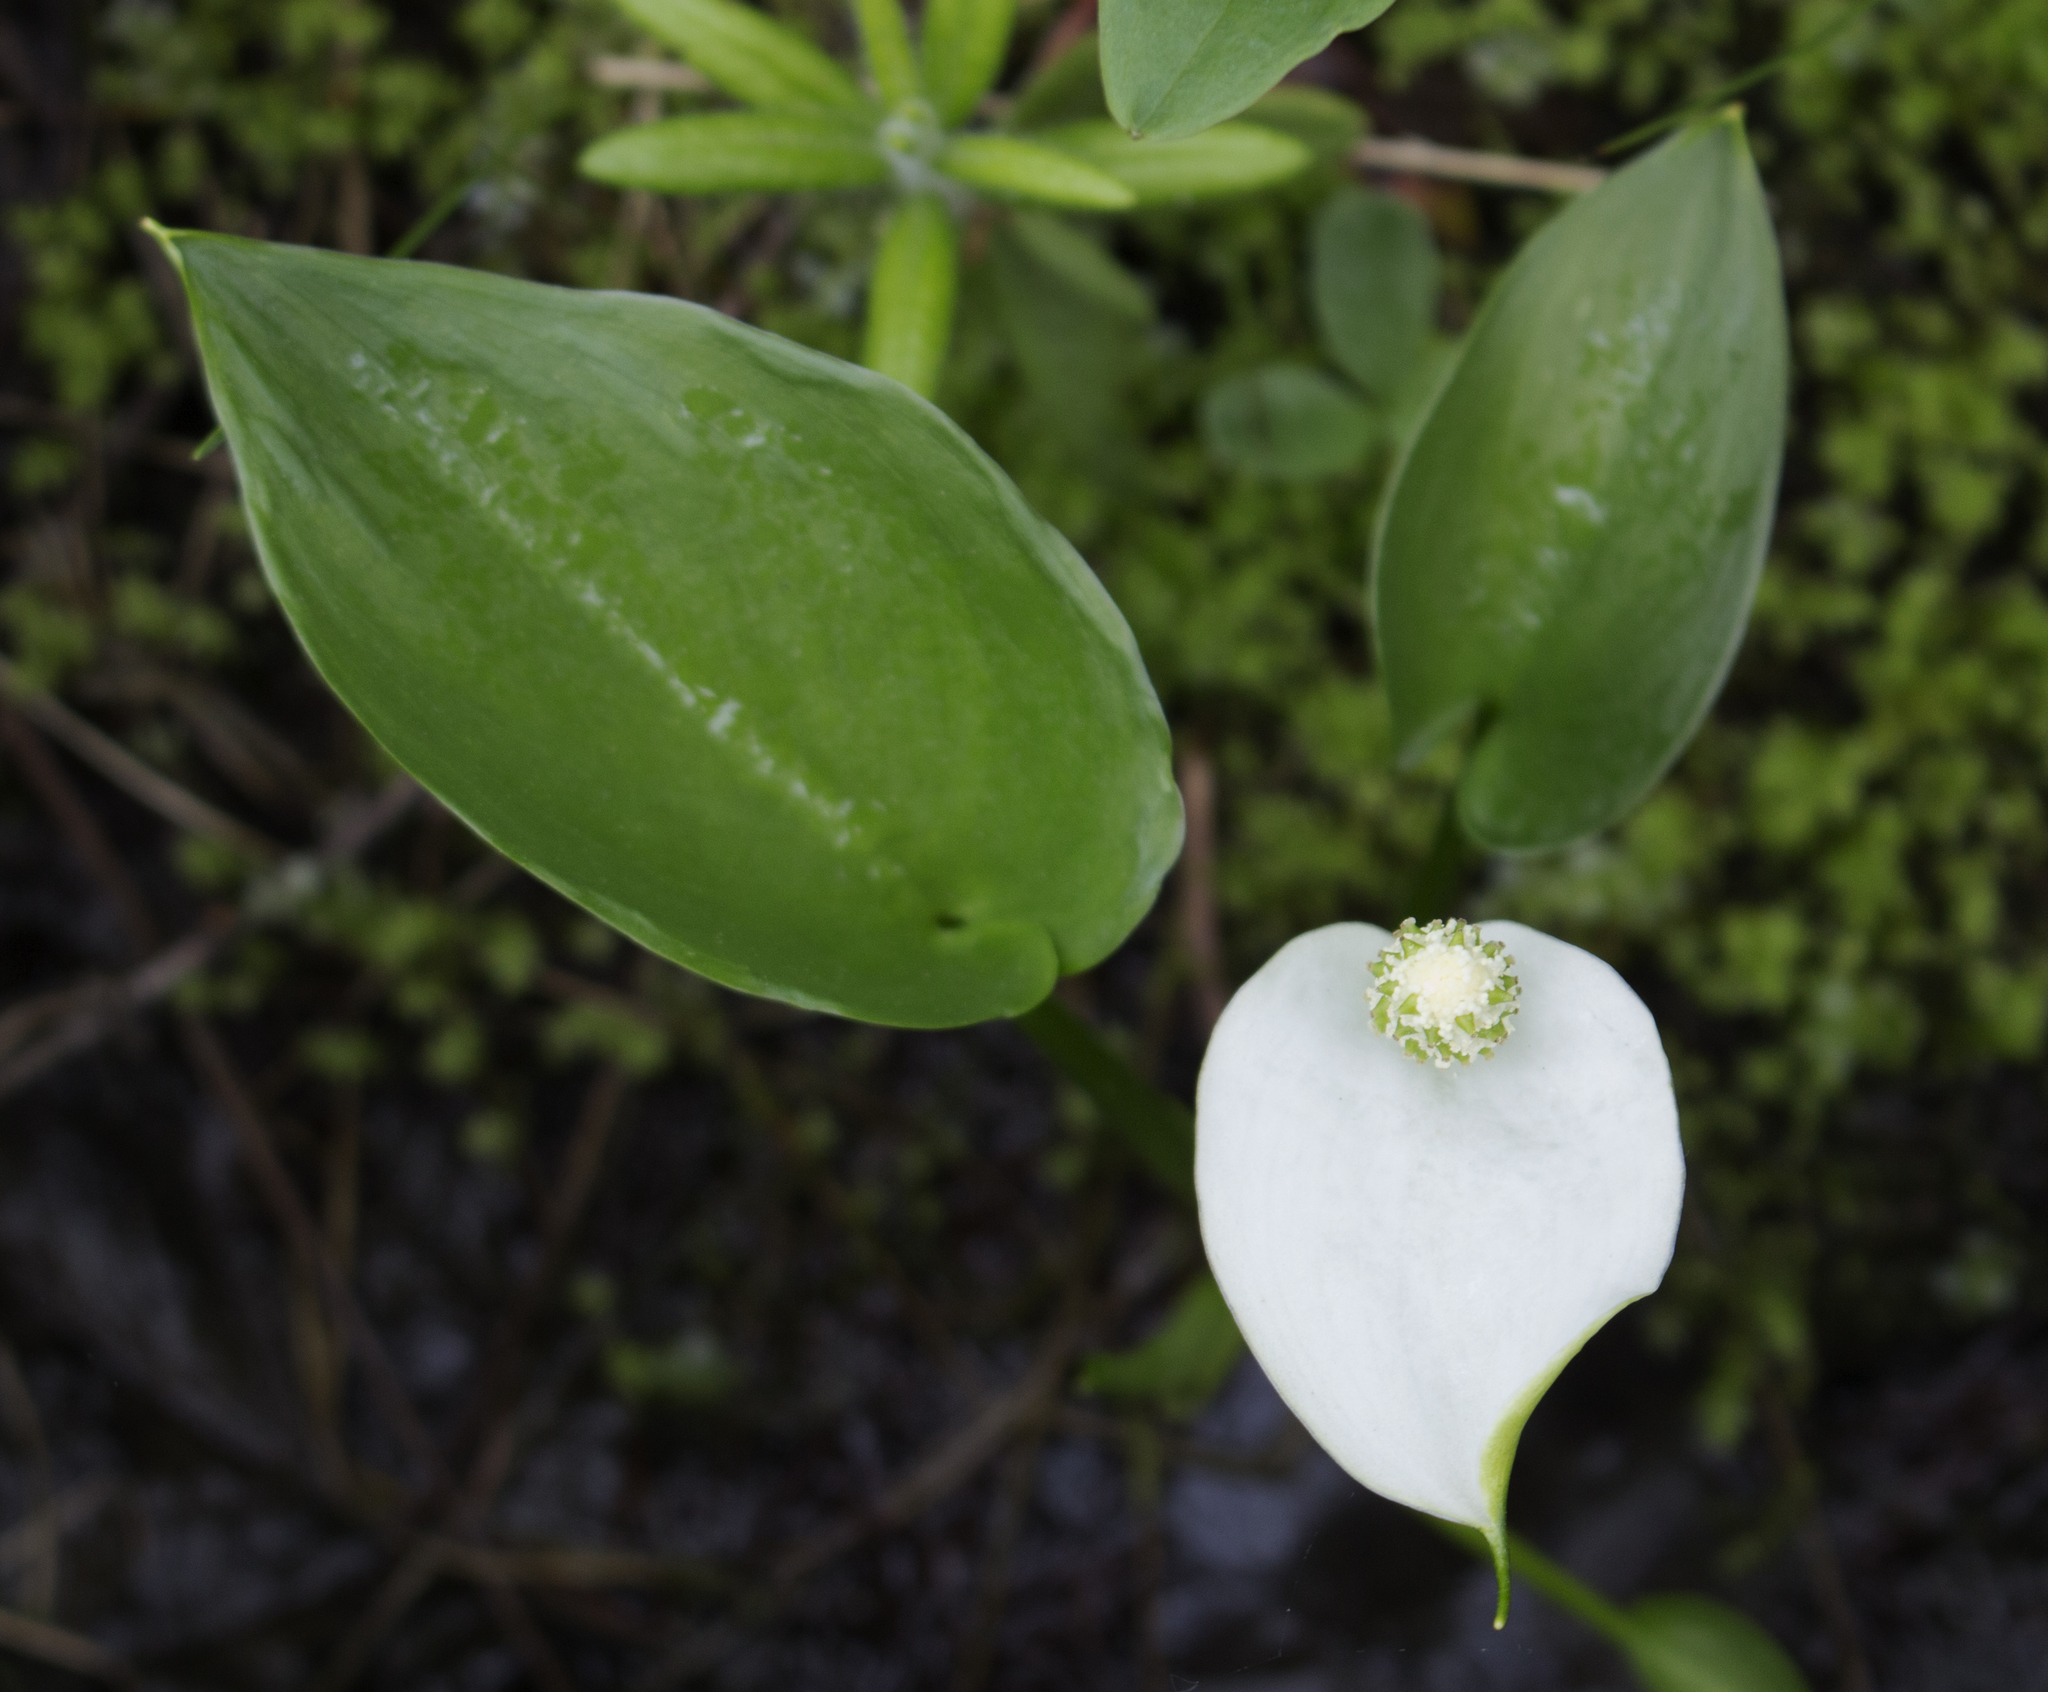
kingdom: Plantae
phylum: Tracheophyta
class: Liliopsida
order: Alismatales
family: Araceae
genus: Calla
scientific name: Calla palustris
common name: Bog arum
